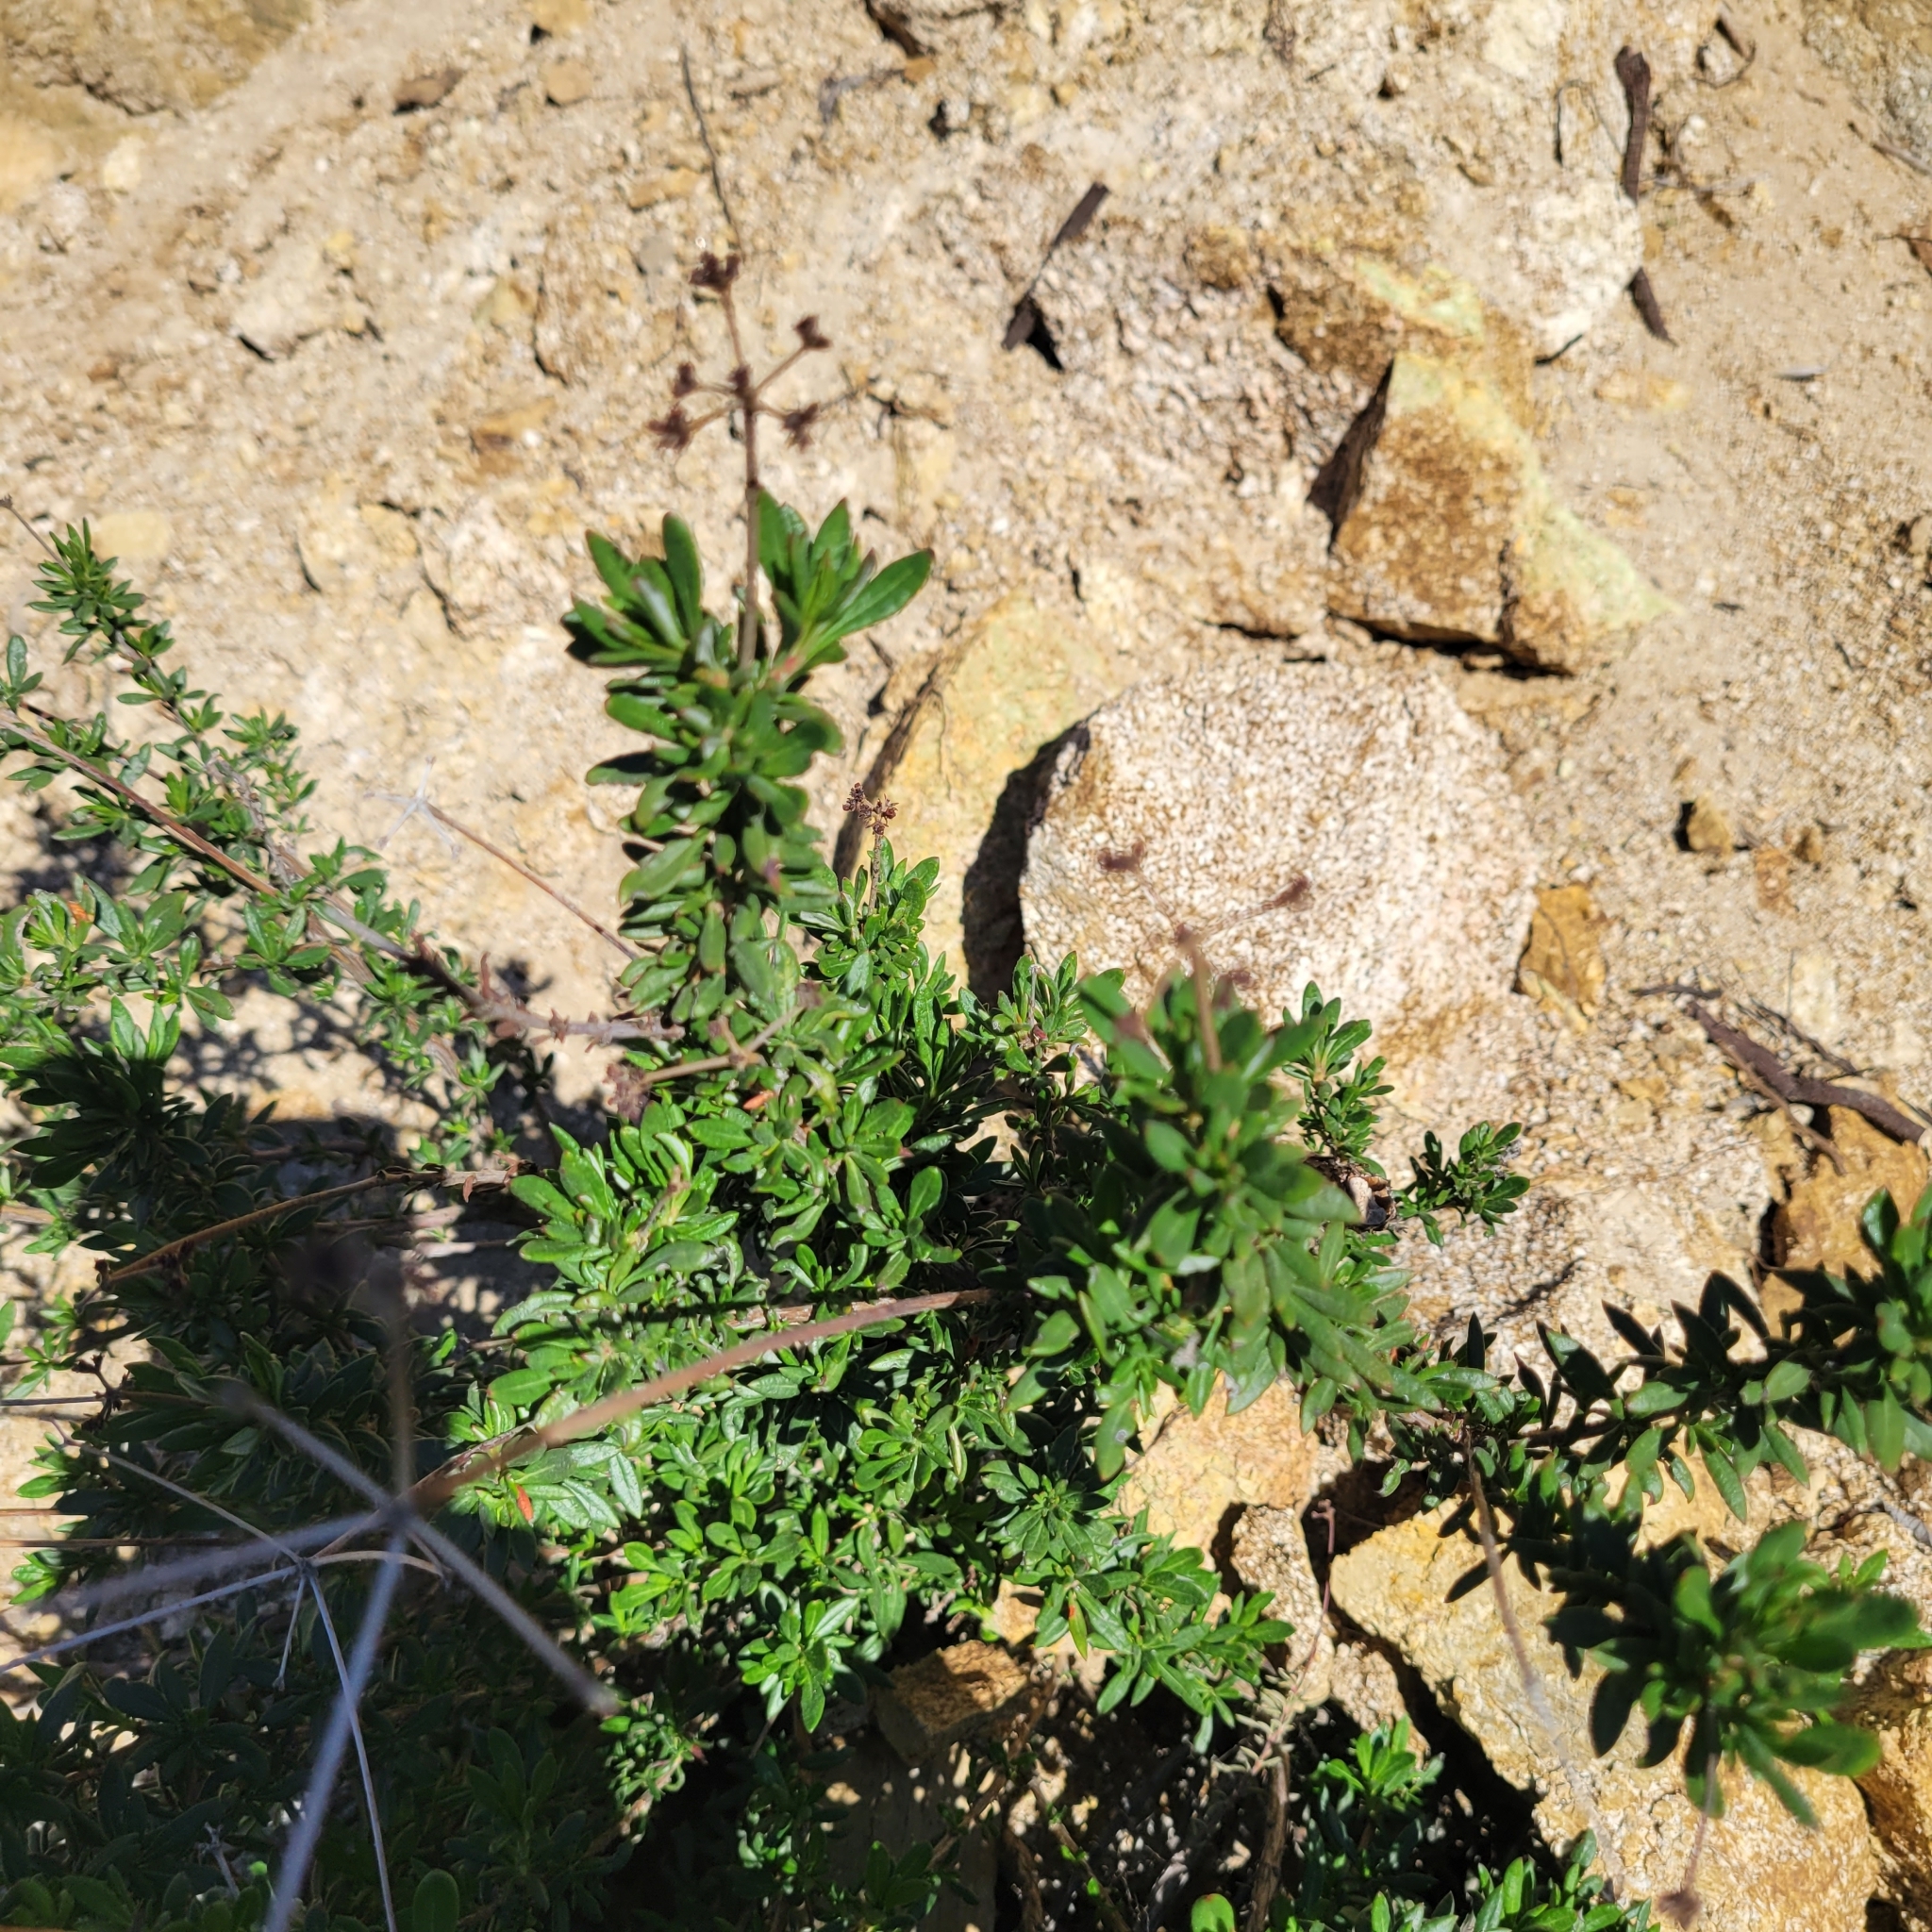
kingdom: Plantae
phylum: Tracheophyta
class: Magnoliopsida
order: Caryophyllales
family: Polygonaceae
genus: Eriogonum
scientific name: Eriogonum fasciculatum
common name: California wild buckwheat
